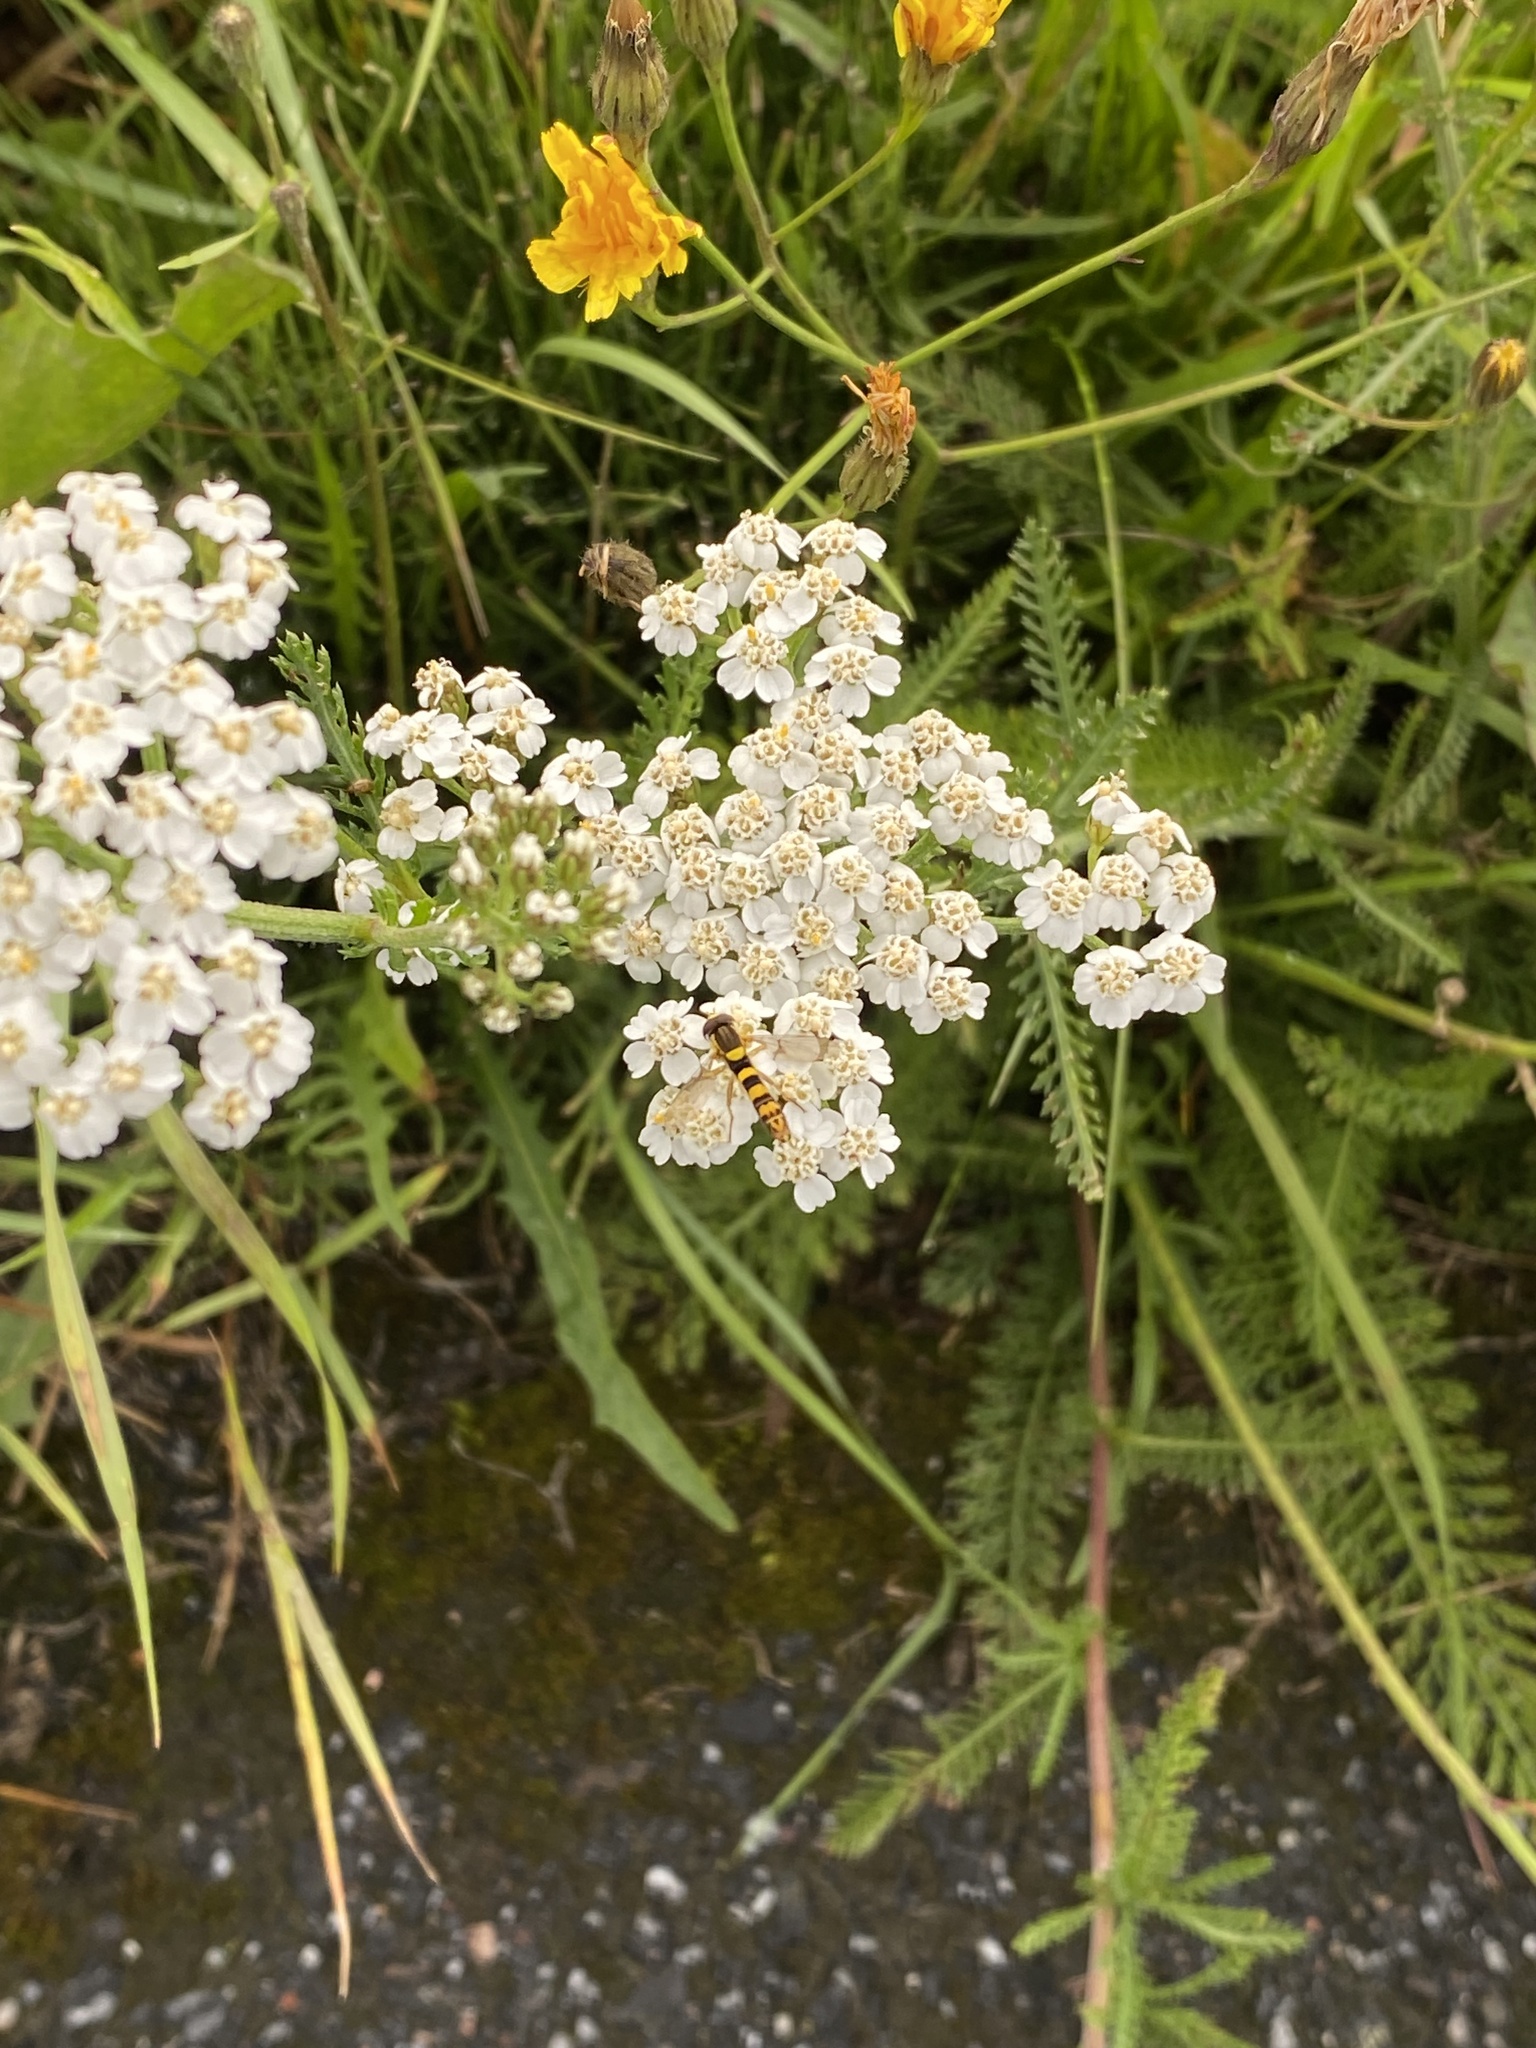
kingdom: Animalia
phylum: Arthropoda
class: Insecta
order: Diptera
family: Syrphidae
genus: Sphaerophoria
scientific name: Sphaerophoria scripta
